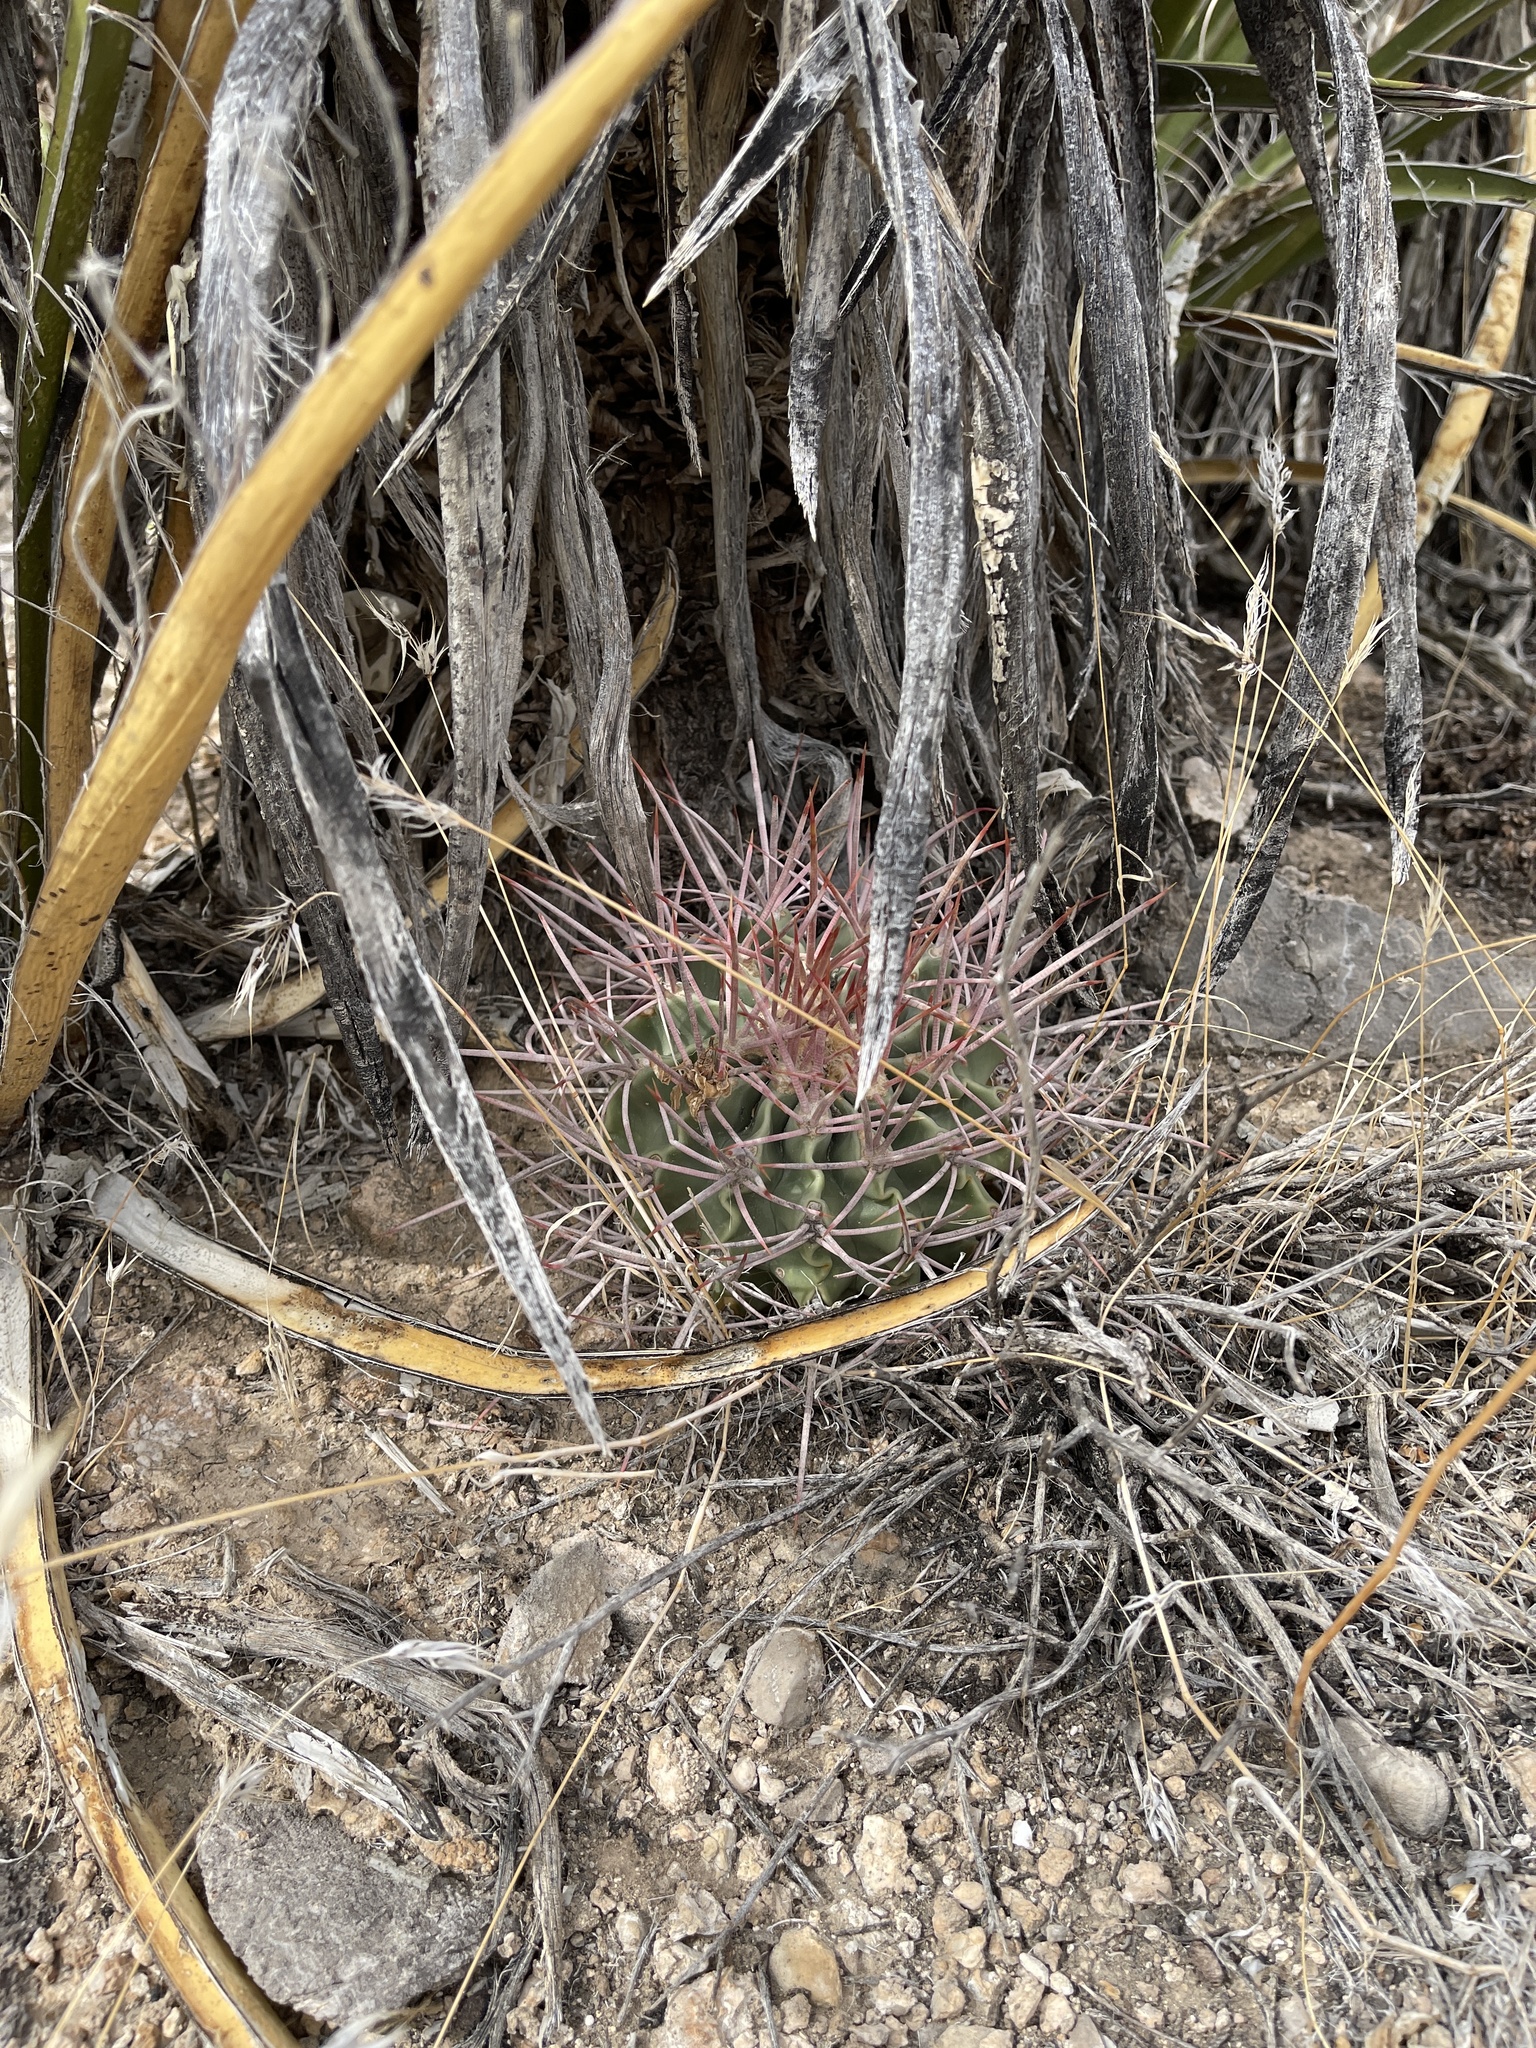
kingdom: Plantae
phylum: Tracheophyta
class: Magnoliopsida
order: Caryophyllales
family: Cactaceae
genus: Echinocactus
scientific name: Echinocactus polycephalus
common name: Cottontop cactus
